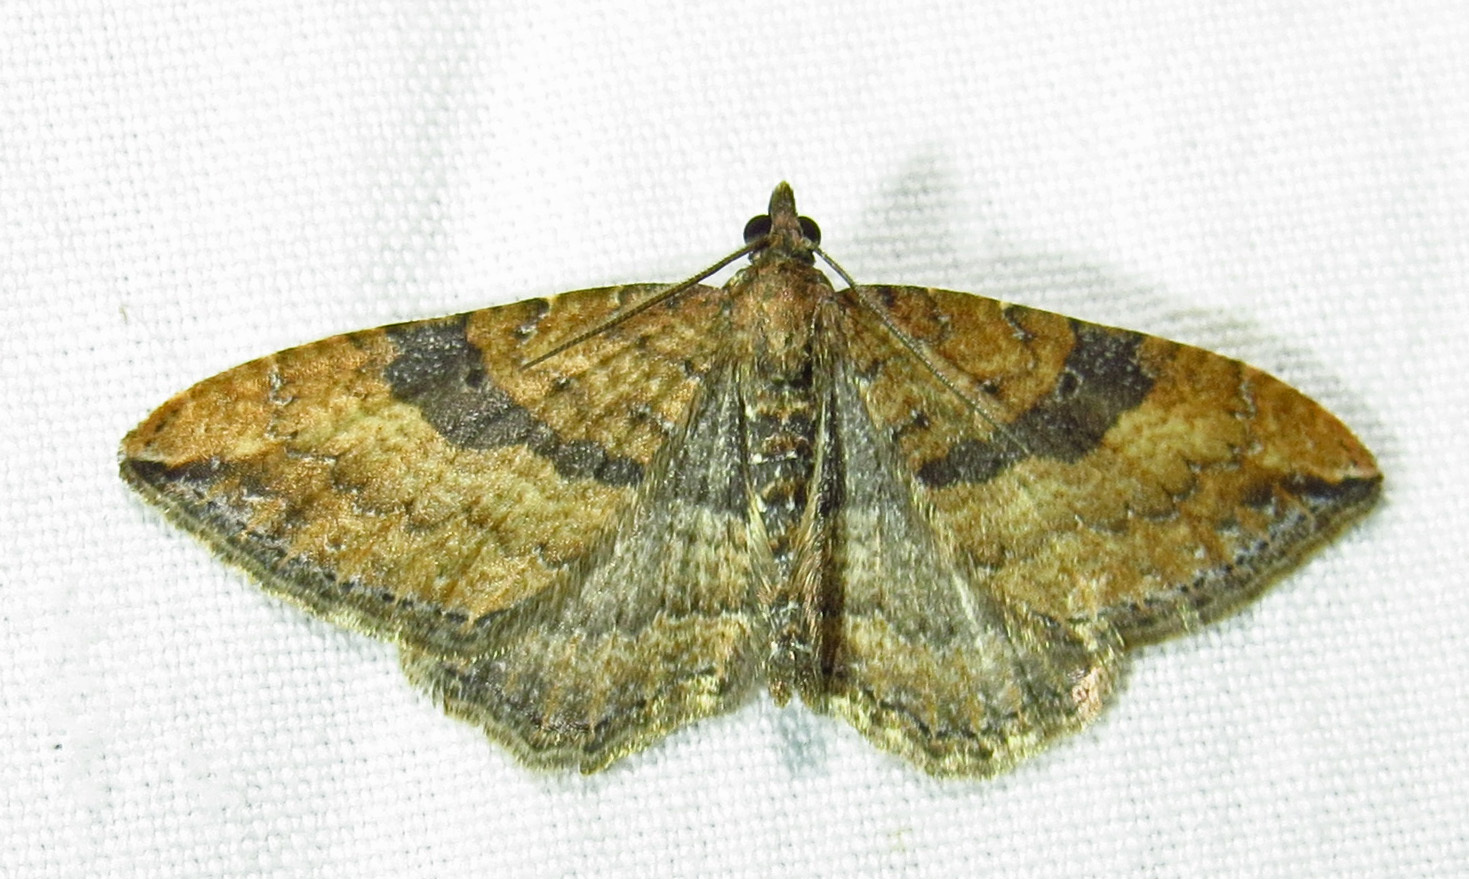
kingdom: Animalia
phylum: Arthropoda
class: Insecta
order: Lepidoptera
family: Geometridae
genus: Orthonama
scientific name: Orthonama obstipata
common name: The gem
